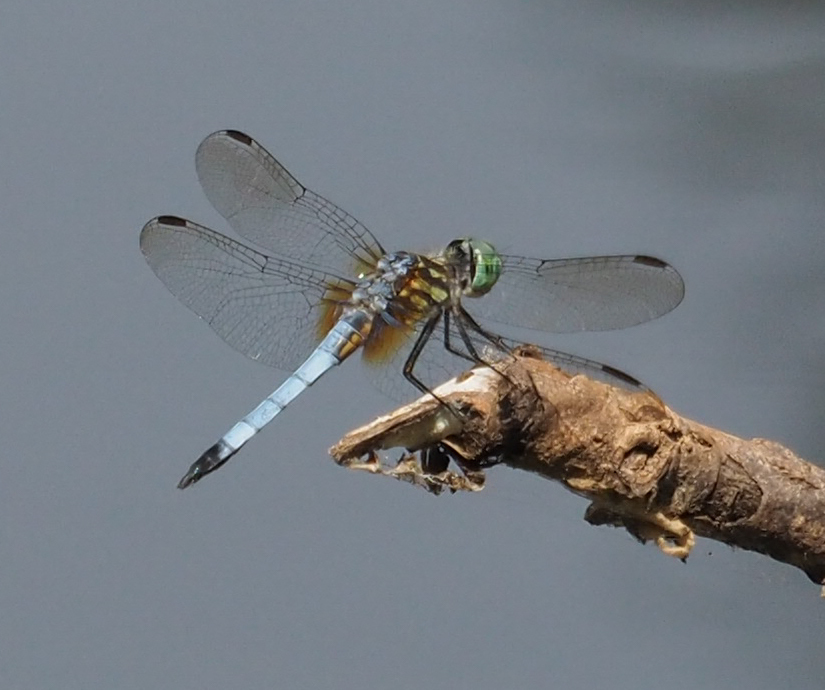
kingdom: Animalia
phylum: Arthropoda
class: Insecta
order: Odonata
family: Libellulidae
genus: Pachydiplax
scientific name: Pachydiplax longipennis
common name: Blue dasher
